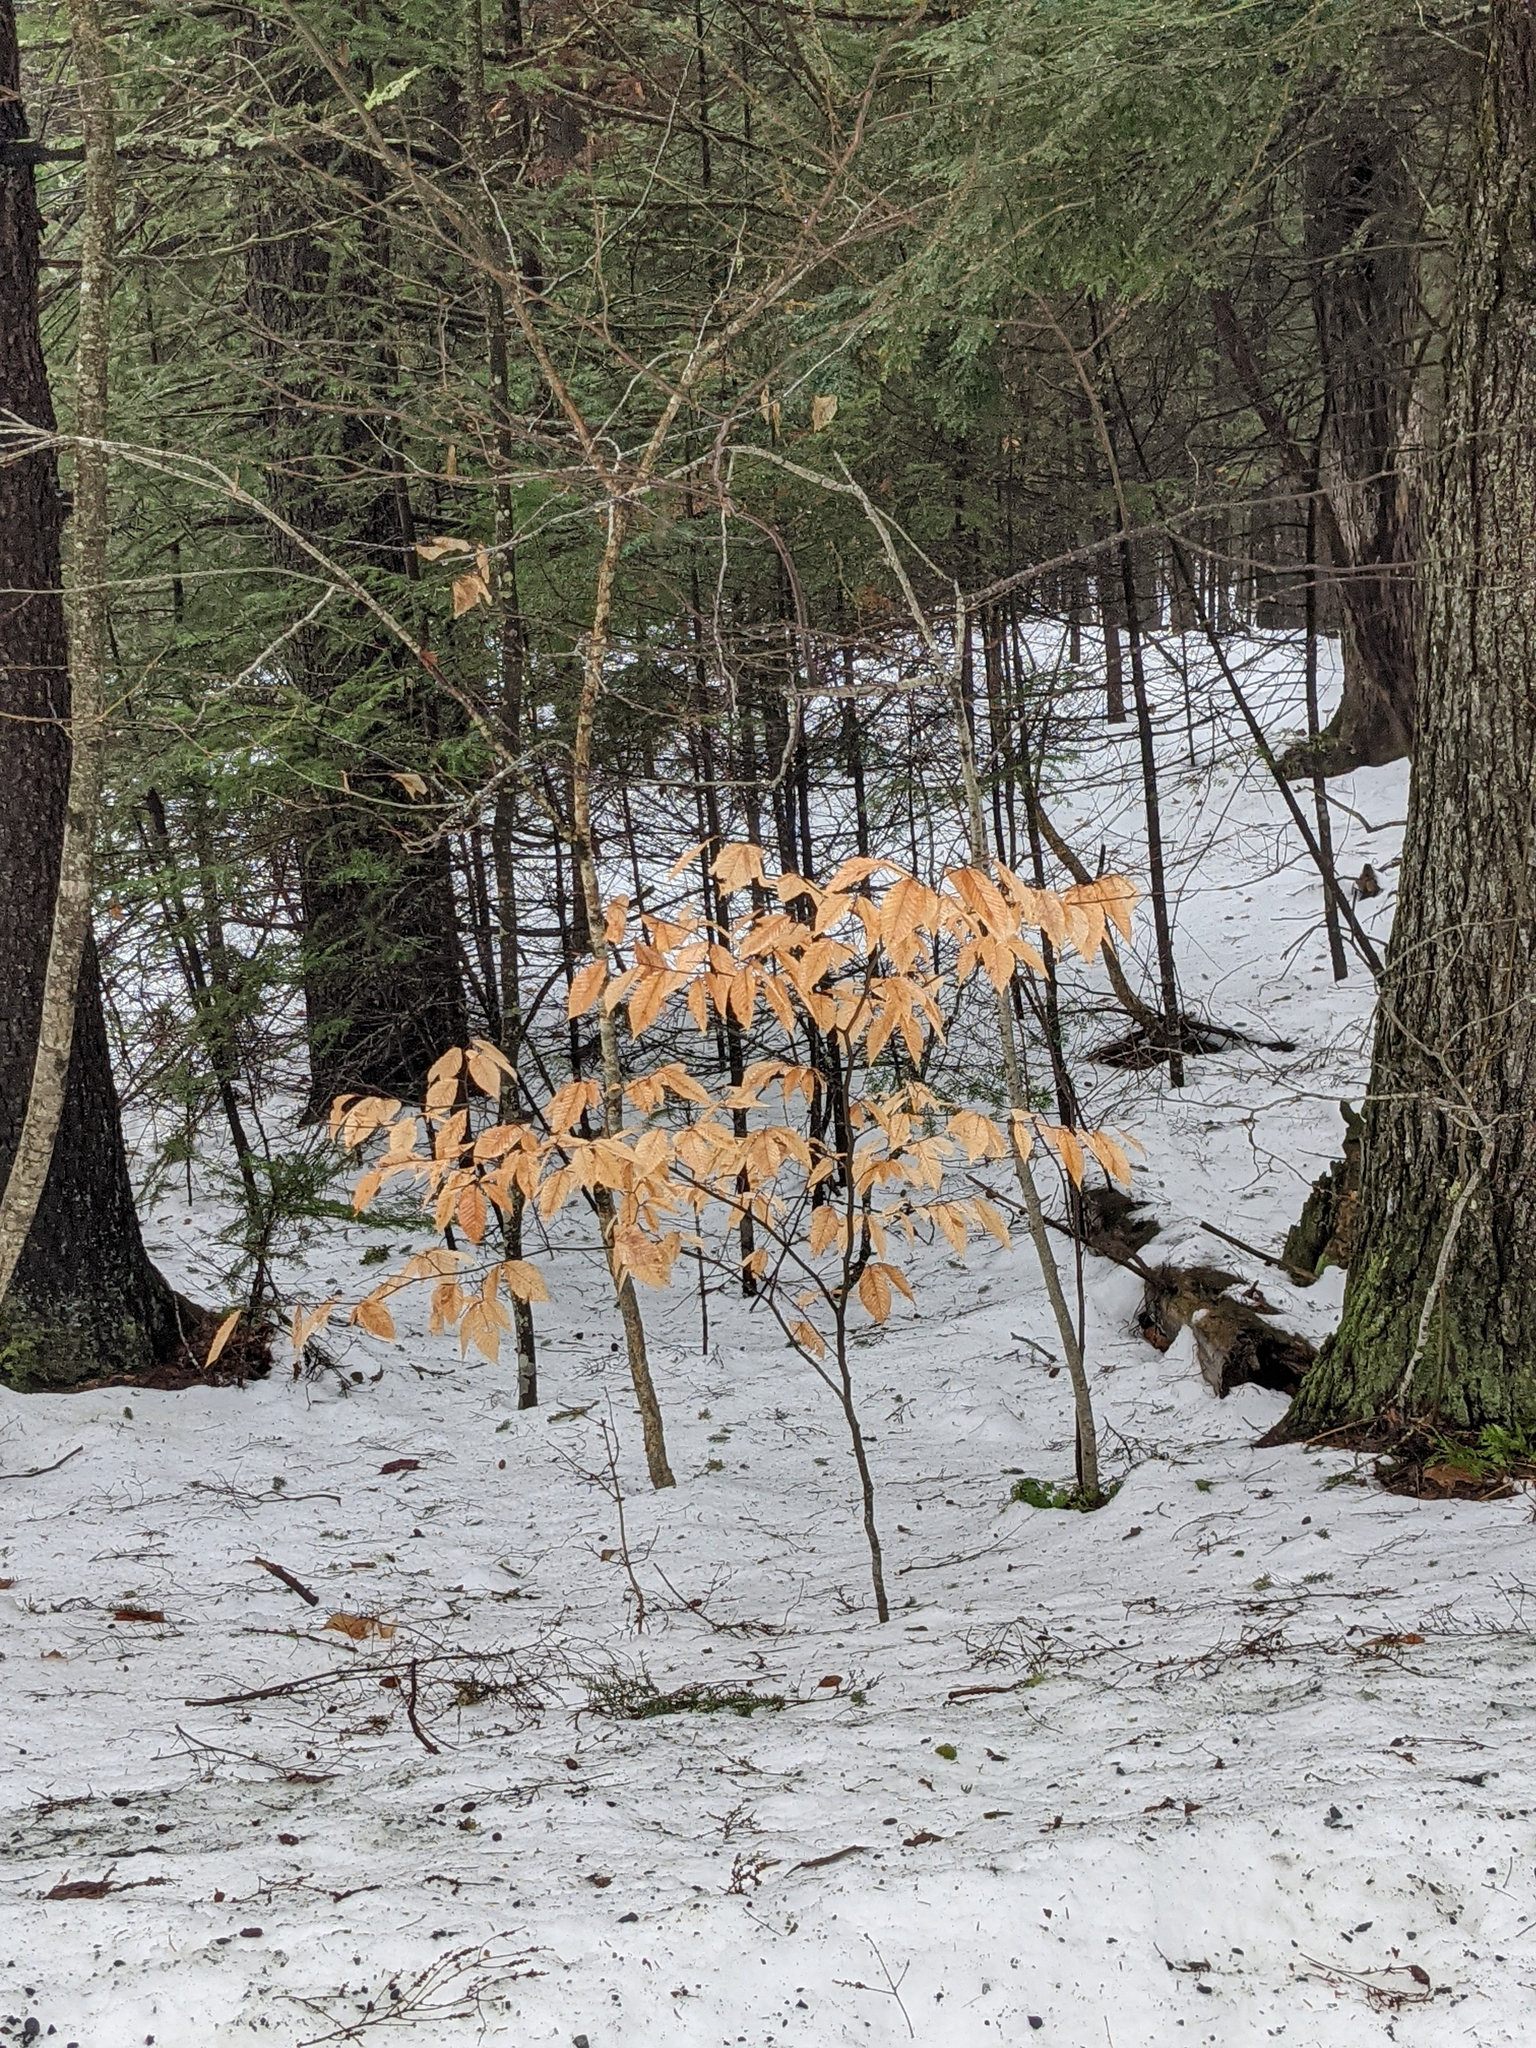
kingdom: Plantae
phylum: Tracheophyta
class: Magnoliopsida
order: Fagales
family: Fagaceae
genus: Fagus
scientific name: Fagus grandifolia
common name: American beech
